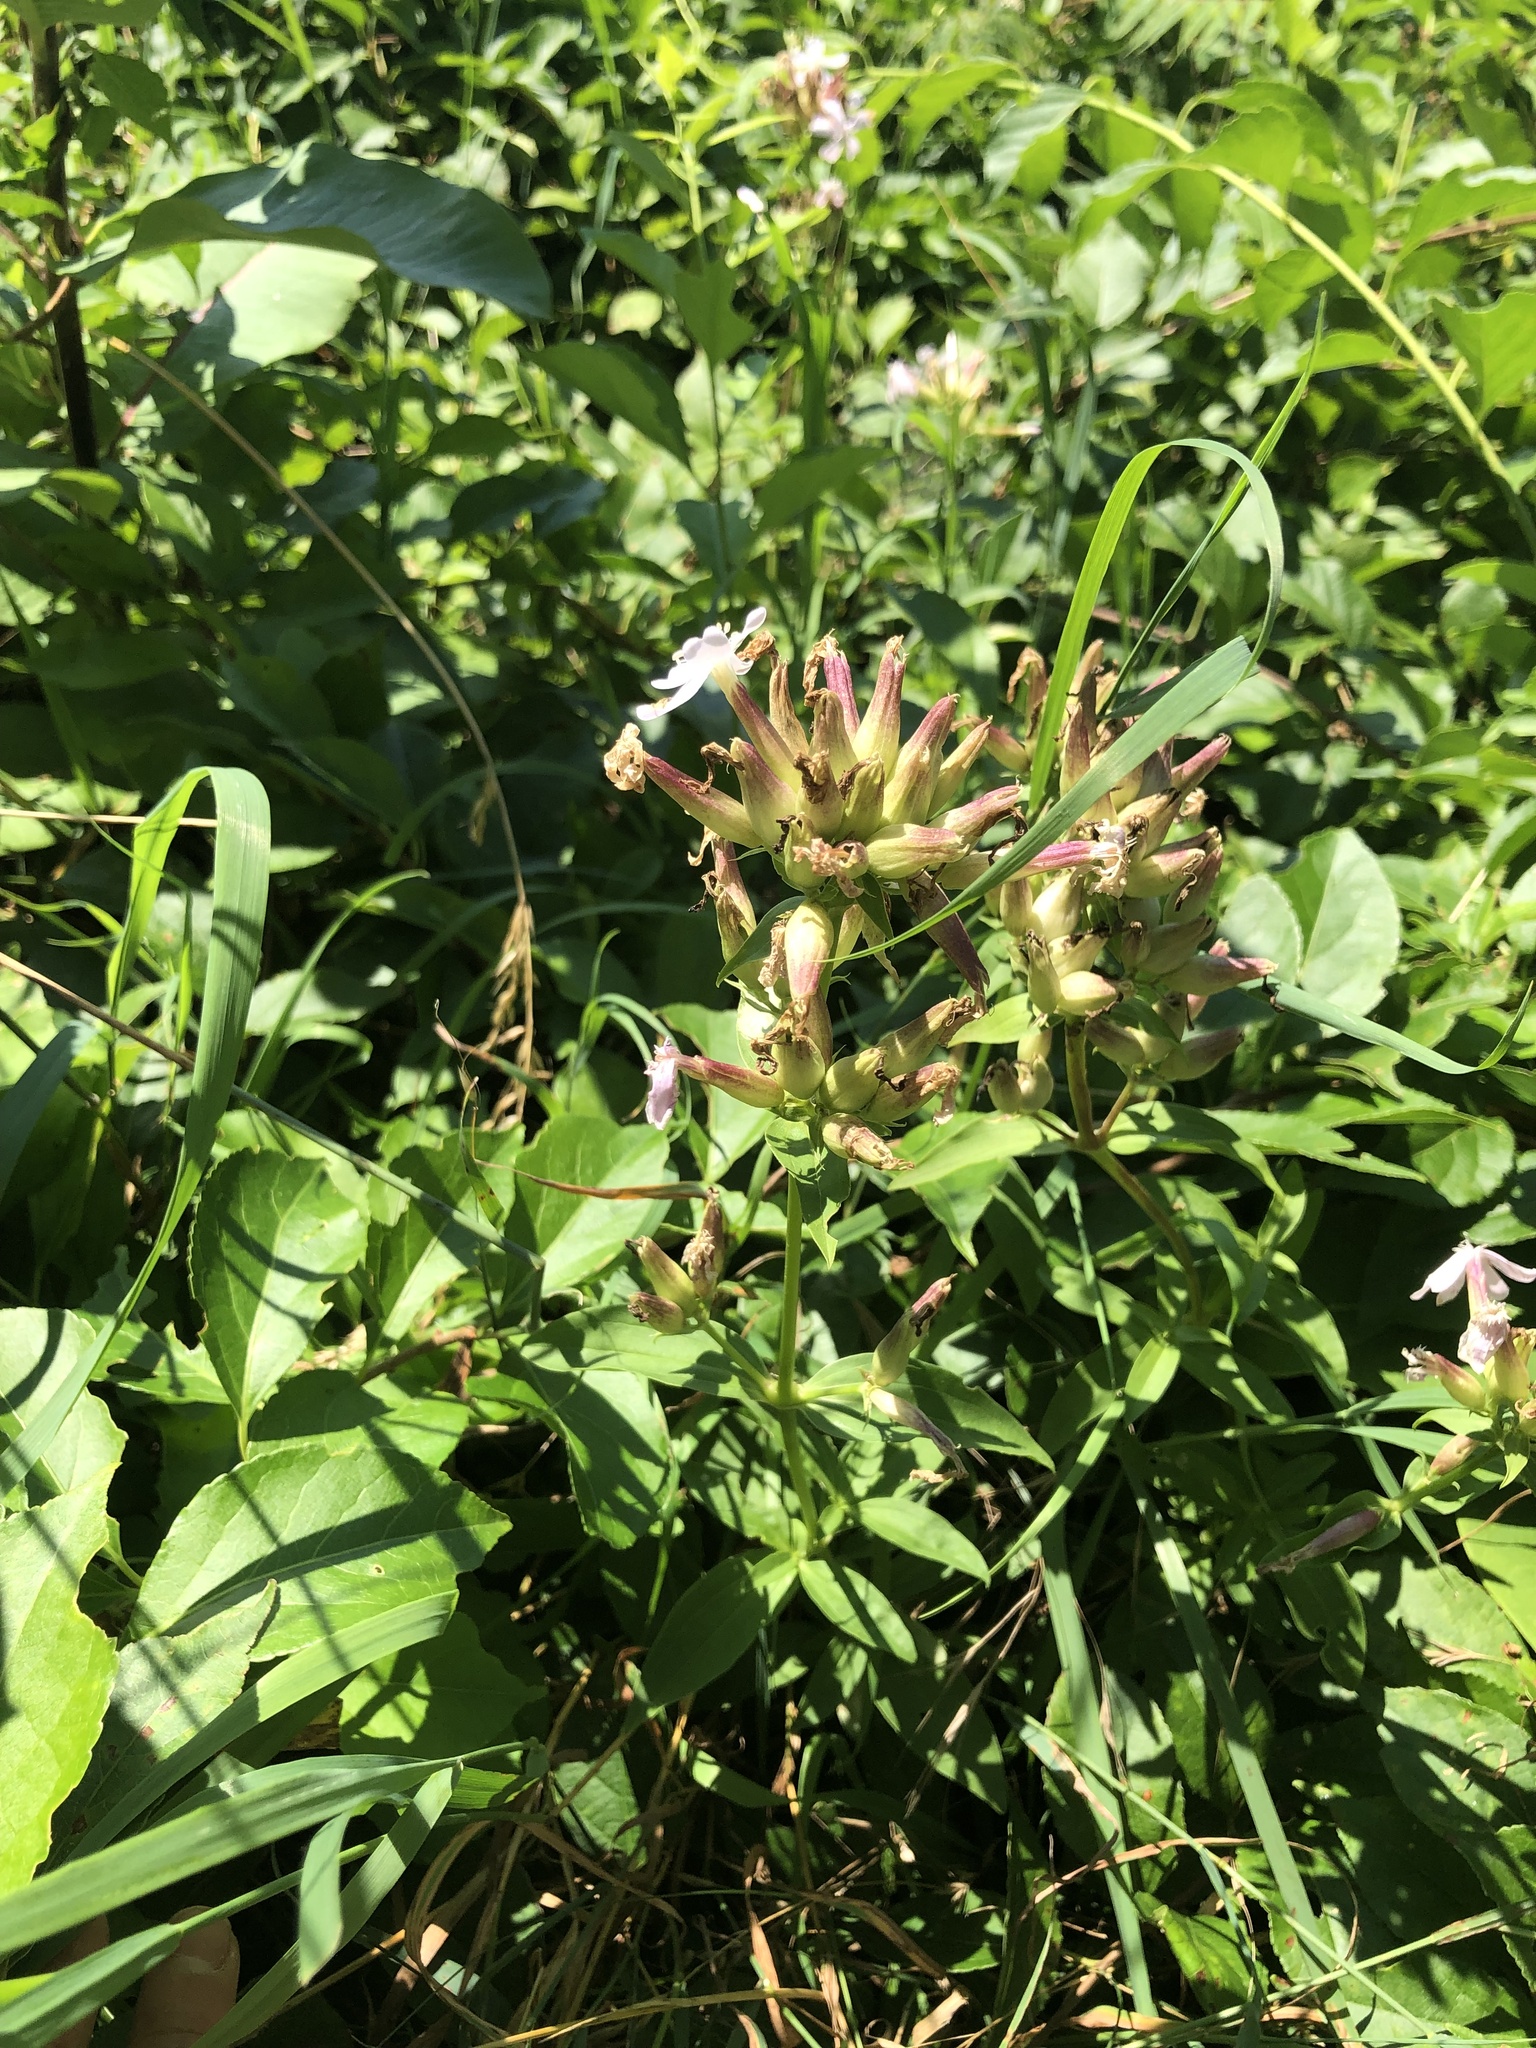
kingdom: Plantae
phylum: Tracheophyta
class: Magnoliopsida
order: Caryophyllales
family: Caryophyllaceae
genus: Saponaria
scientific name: Saponaria officinalis
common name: Soapwort
